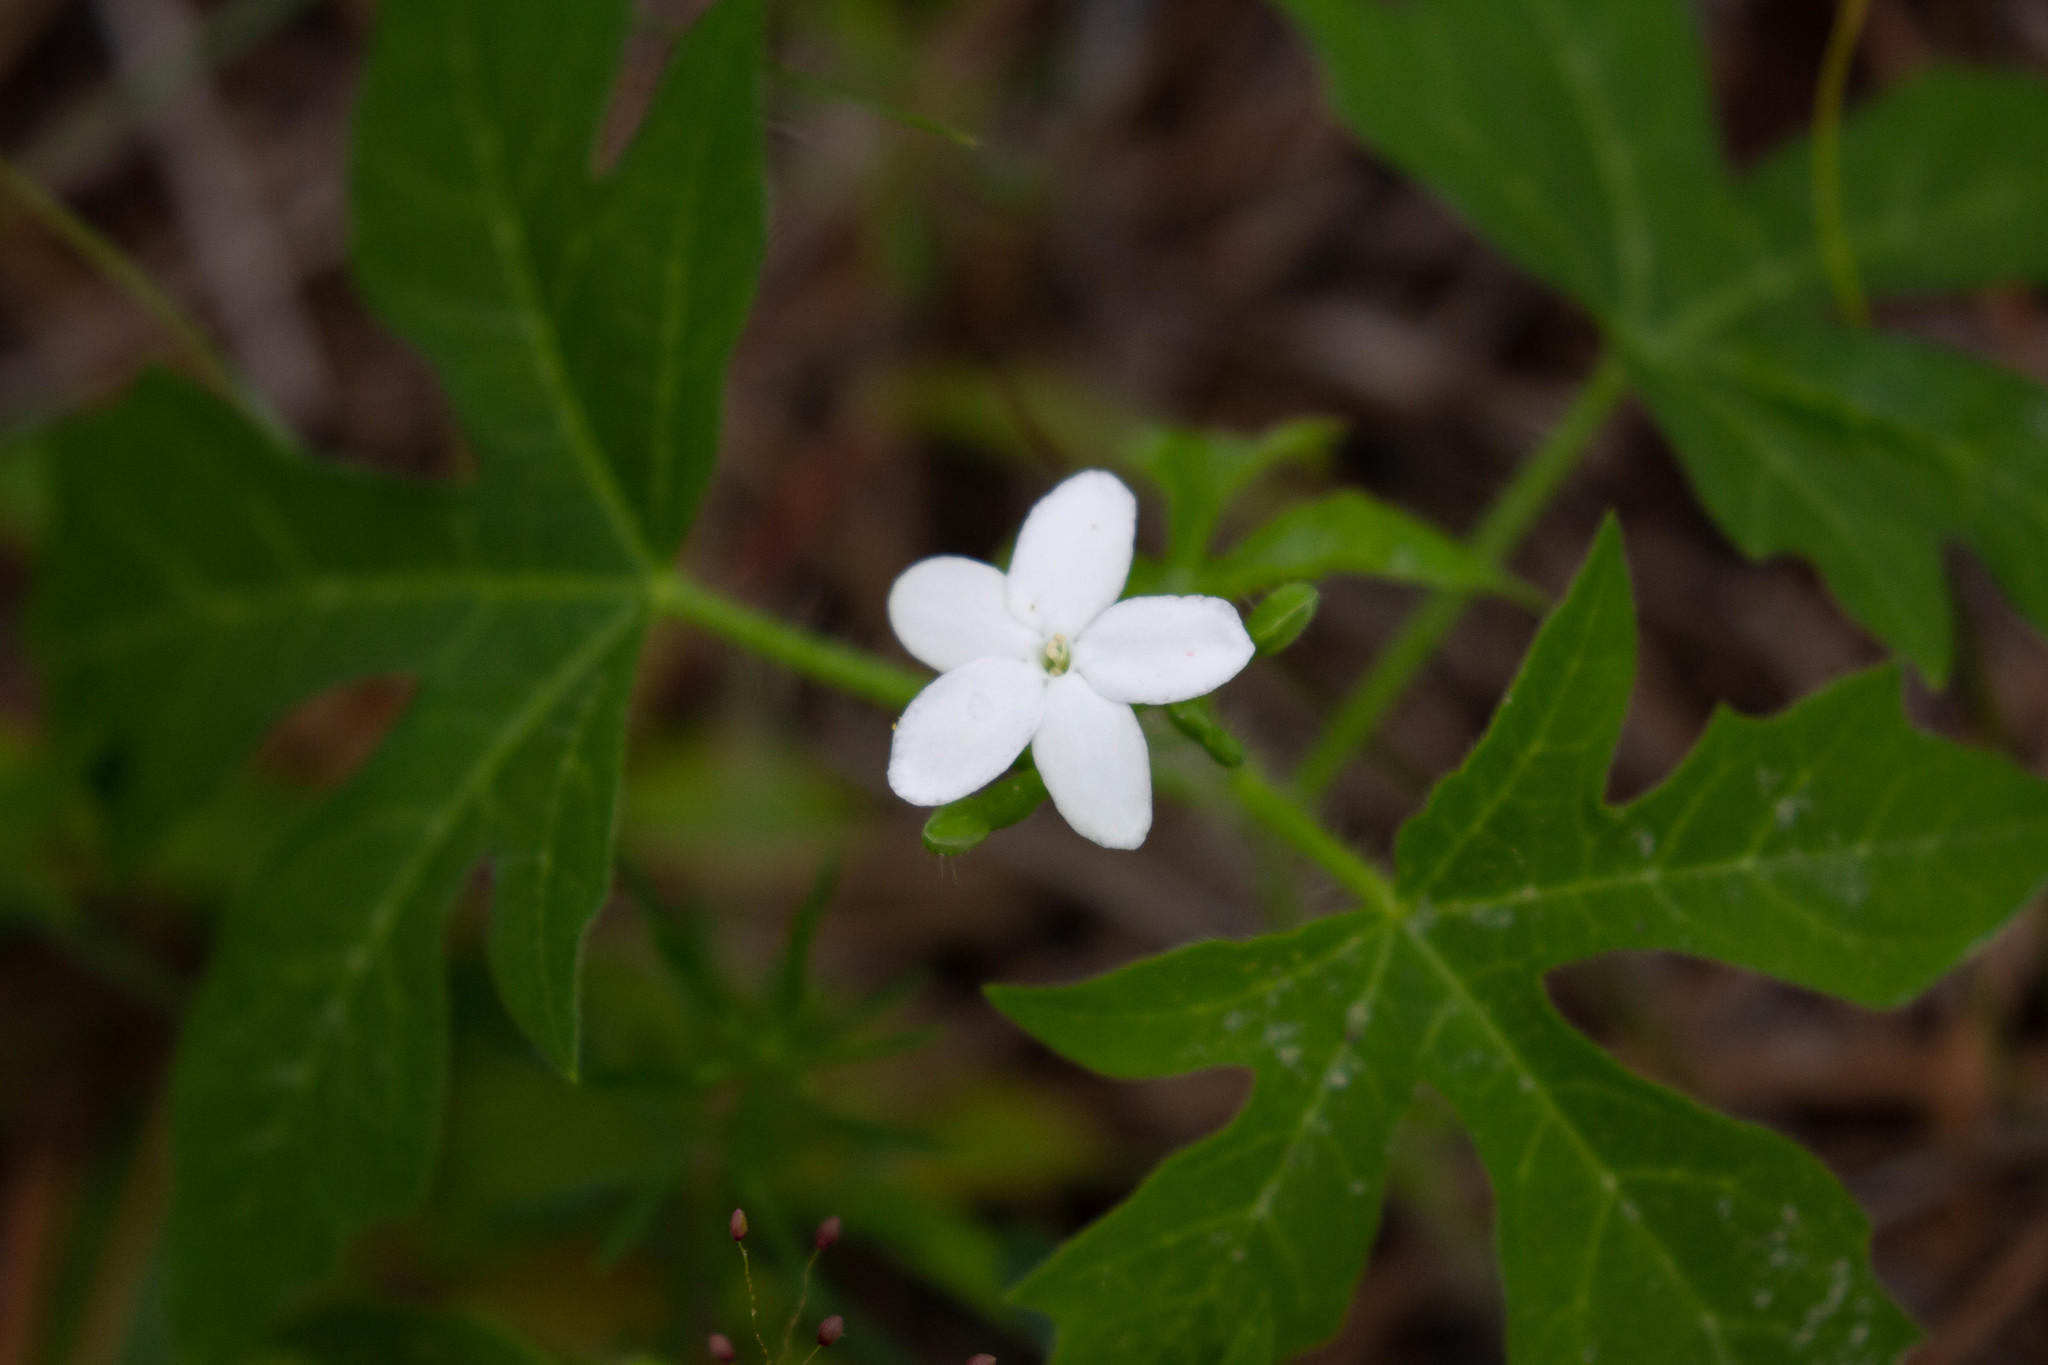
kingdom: Plantae
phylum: Tracheophyta
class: Magnoliopsida
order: Malpighiales
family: Euphorbiaceae
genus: Cnidoscolus
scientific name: Cnidoscolus stimulosus
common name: Bull-nettle
